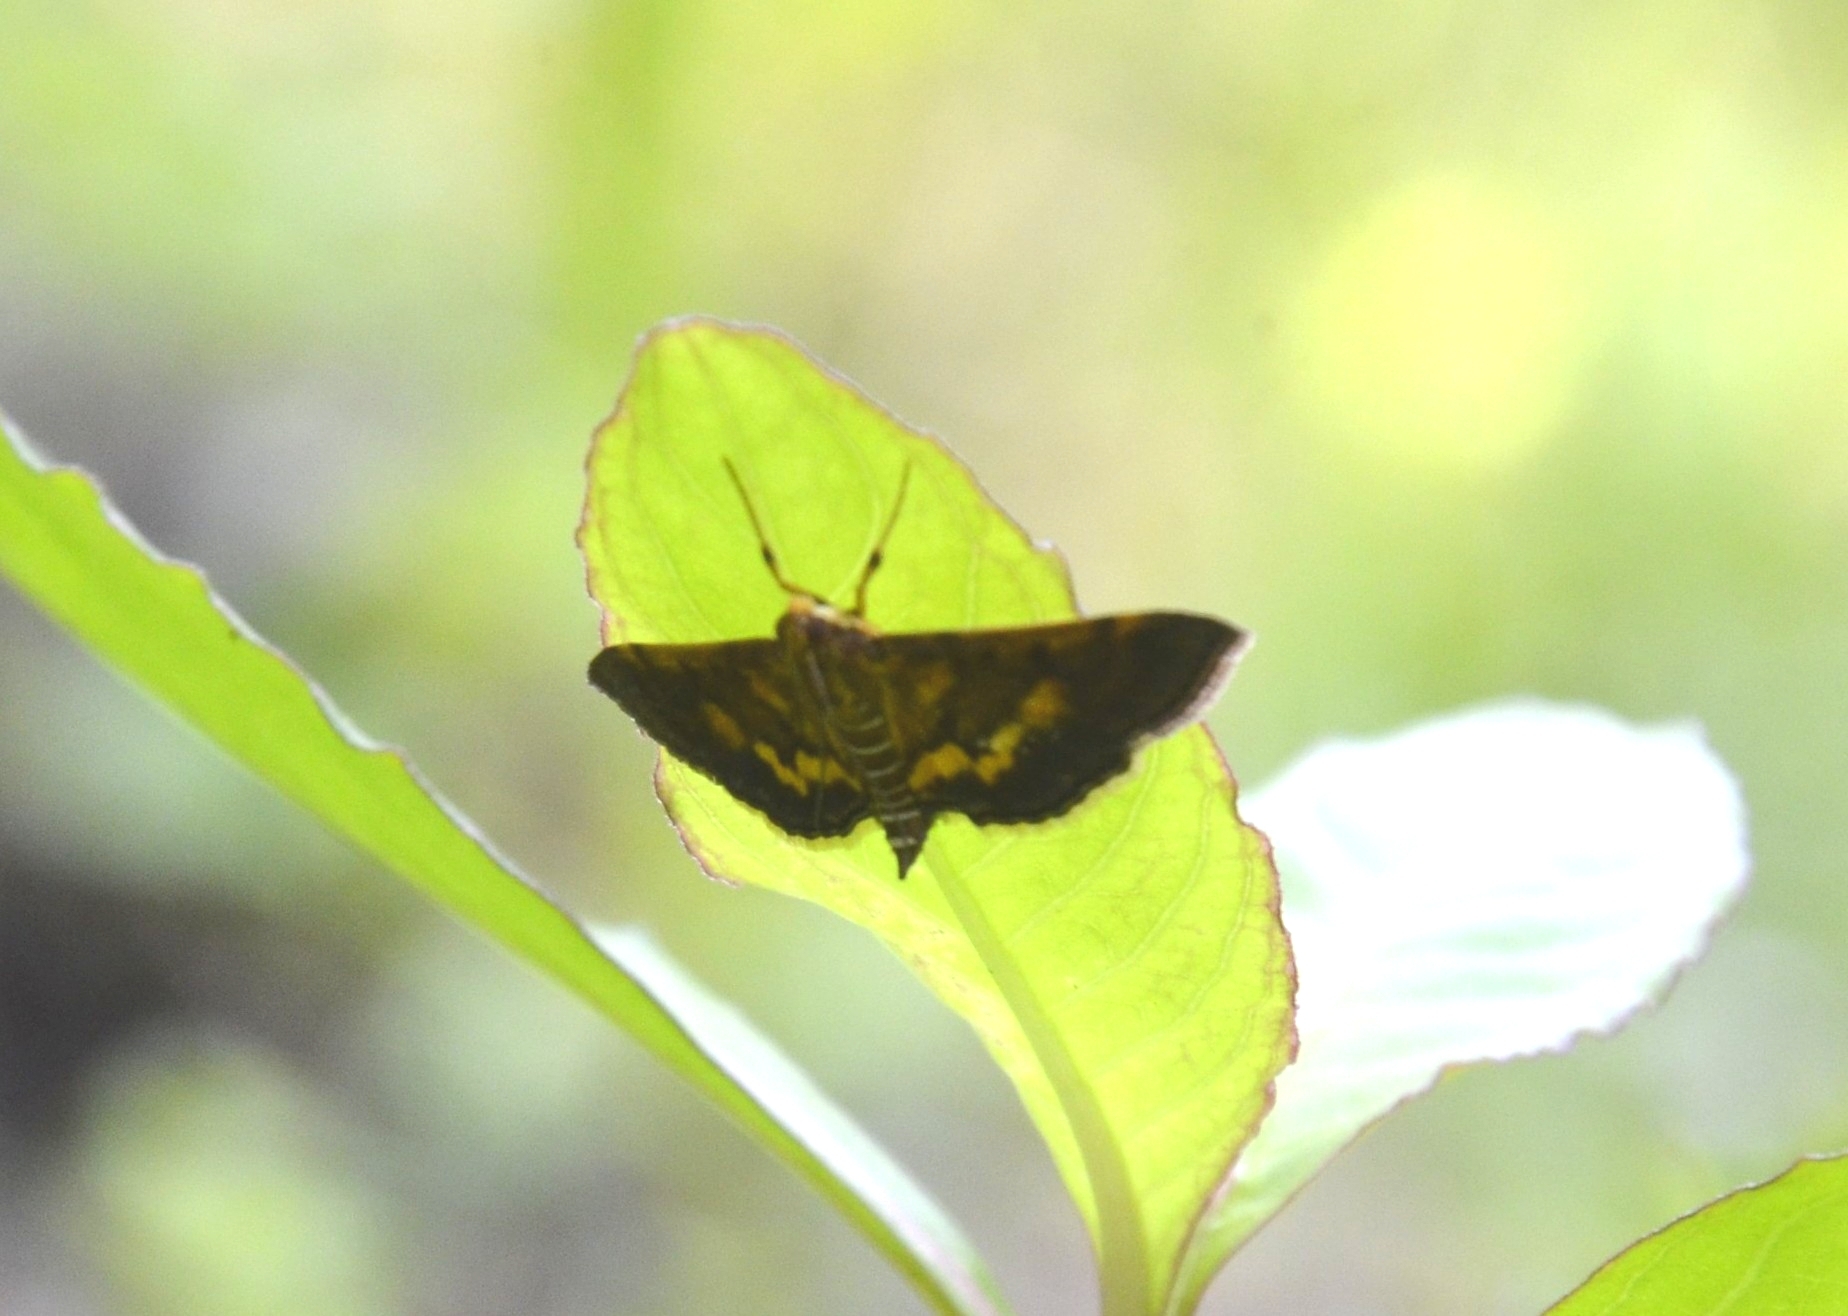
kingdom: Animalia
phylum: Arthropoda
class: Insecta
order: Lepidoptera
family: Crambidae
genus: Omiodes
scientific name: Omiodes diemenalis
